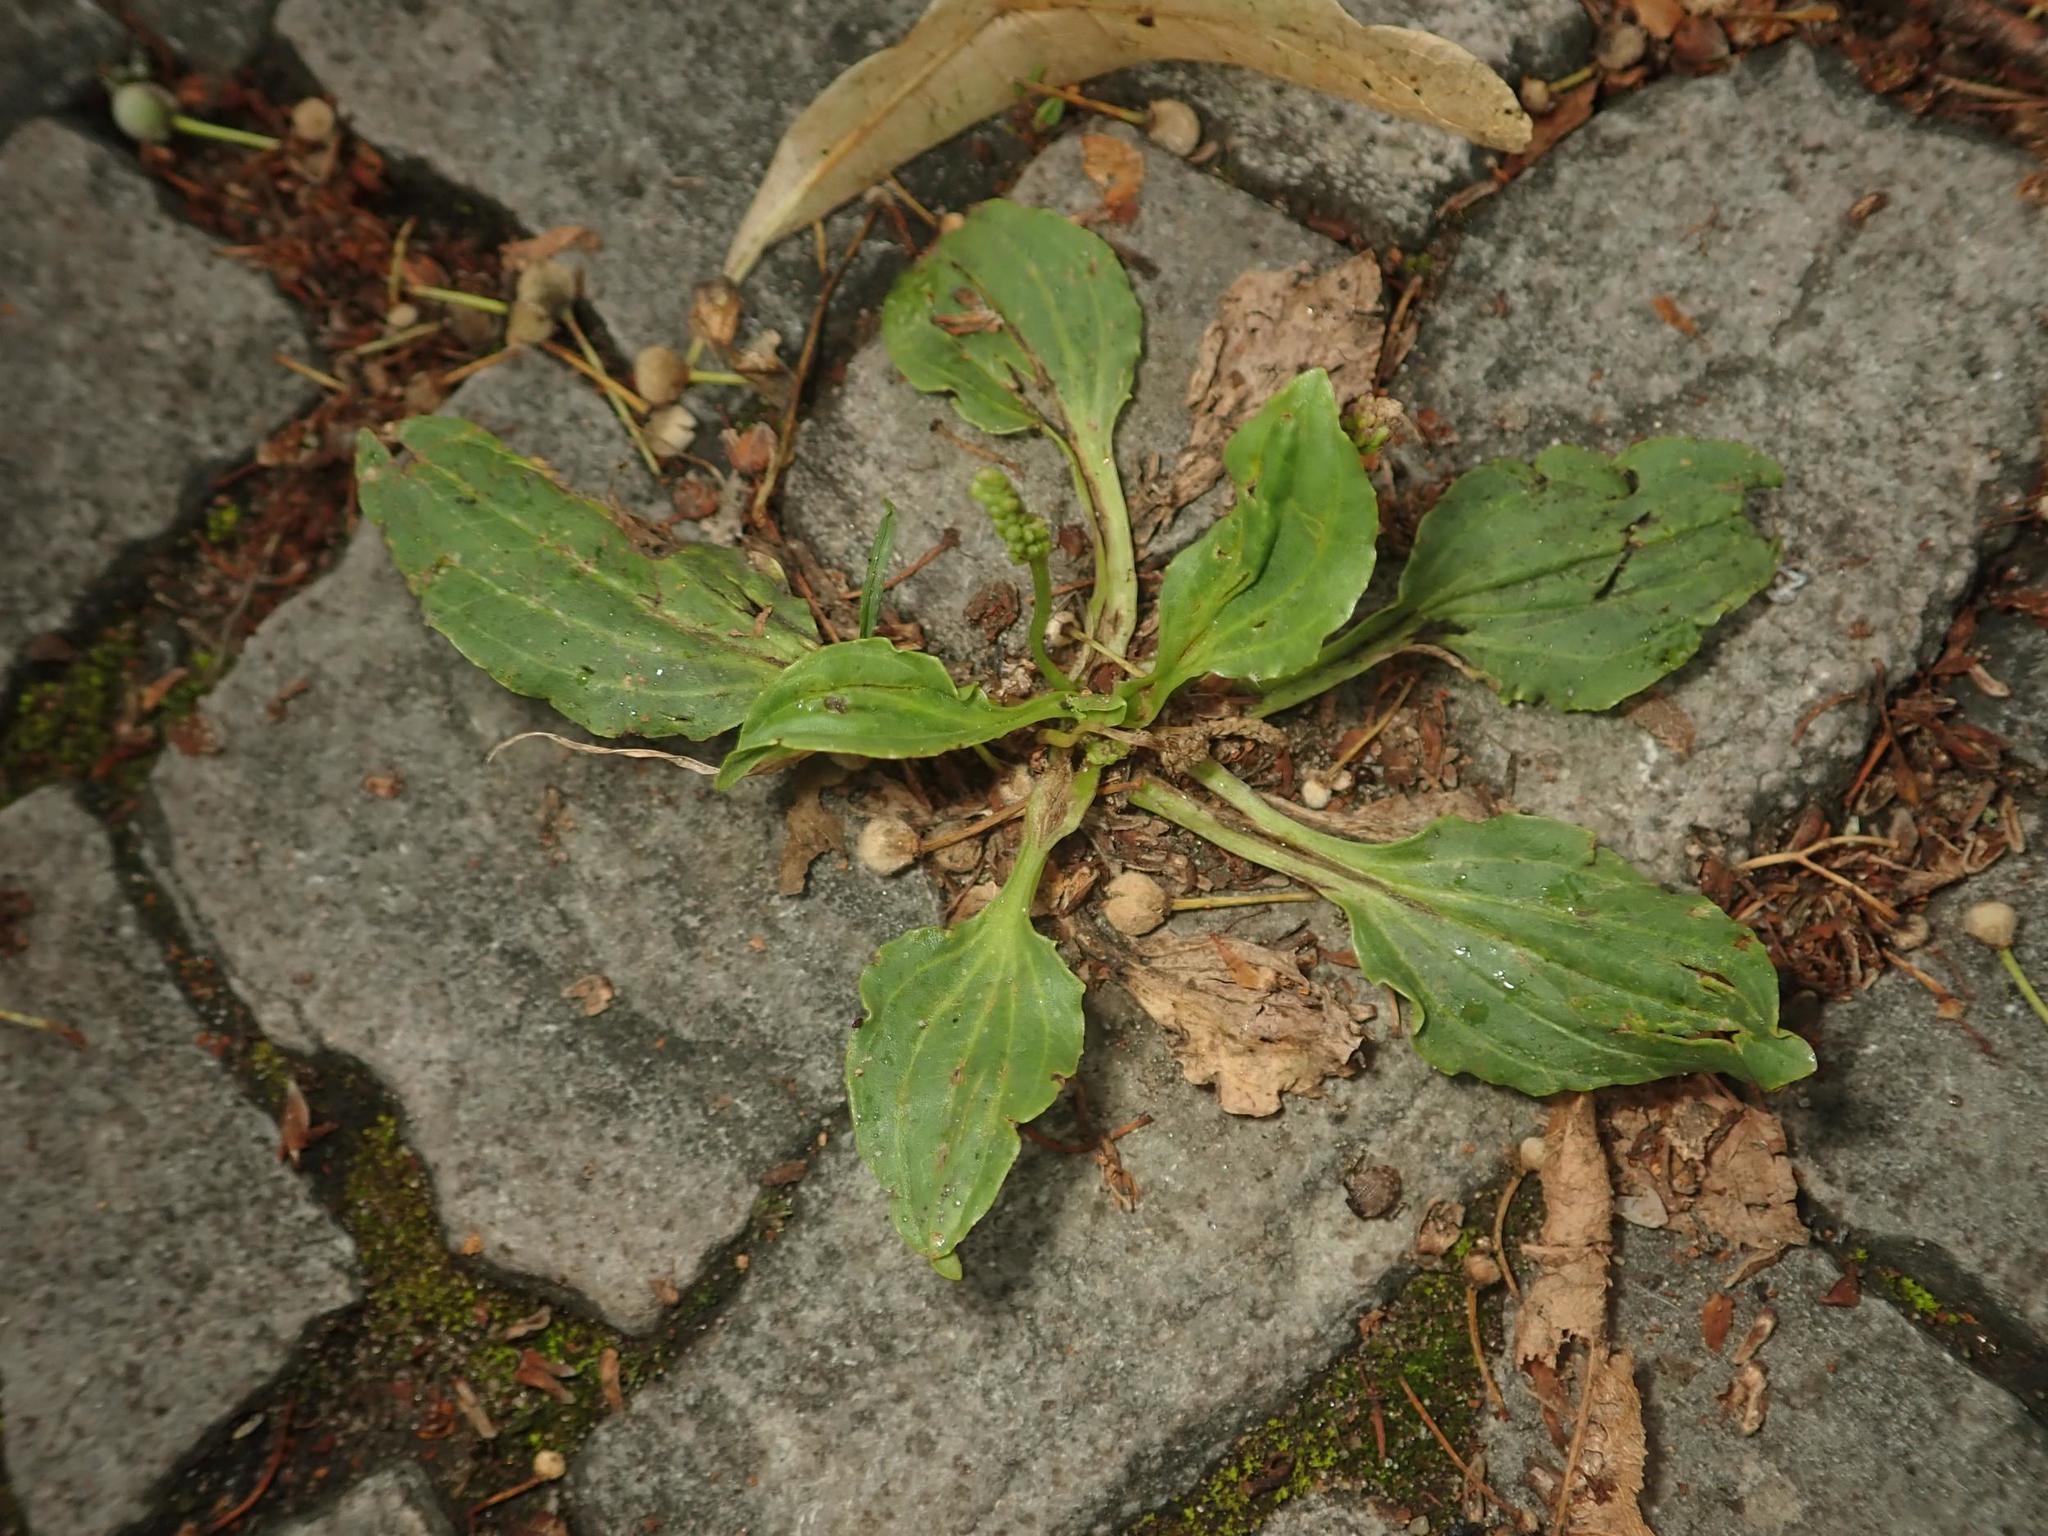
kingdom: Plantae
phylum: Tracheophyta
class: Magnoliopsida
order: Lamiales
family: Plantaginaceae
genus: Plantago
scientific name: Plantago major
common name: Common plantain
